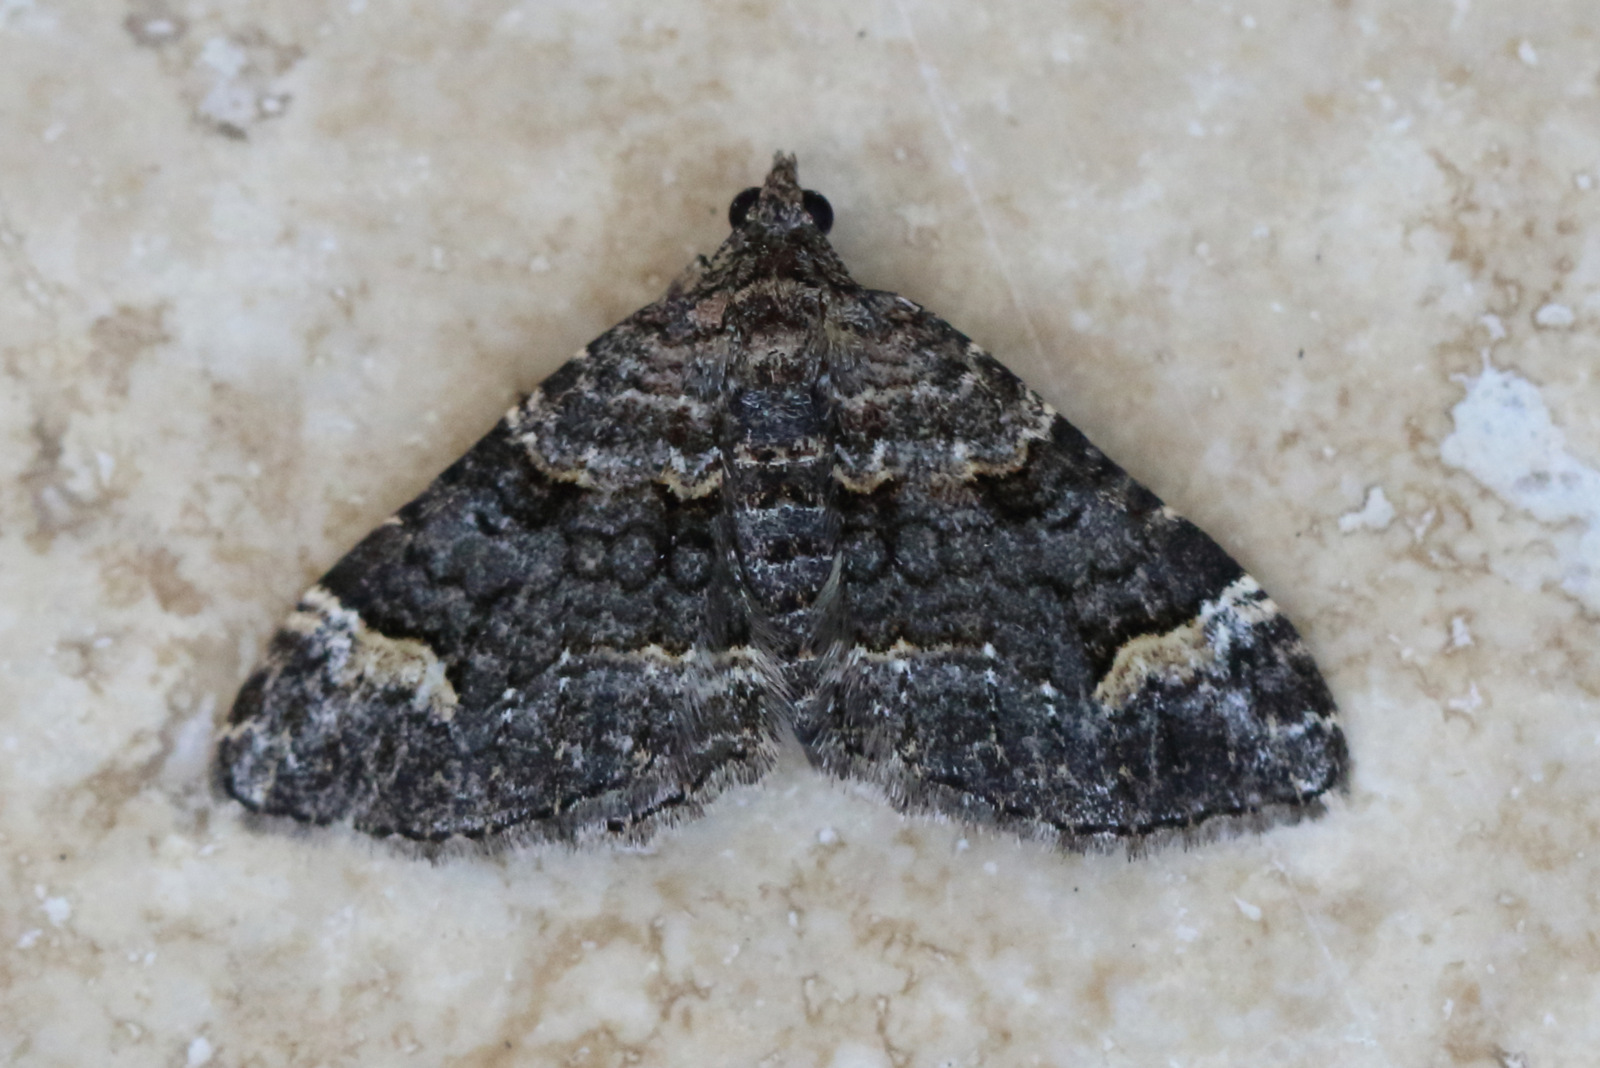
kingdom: Animalia
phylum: Arthropoda
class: Insecta
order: Lepidoptera
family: Geometridae
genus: Epyaxa
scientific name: Epyaxa sodaliata
